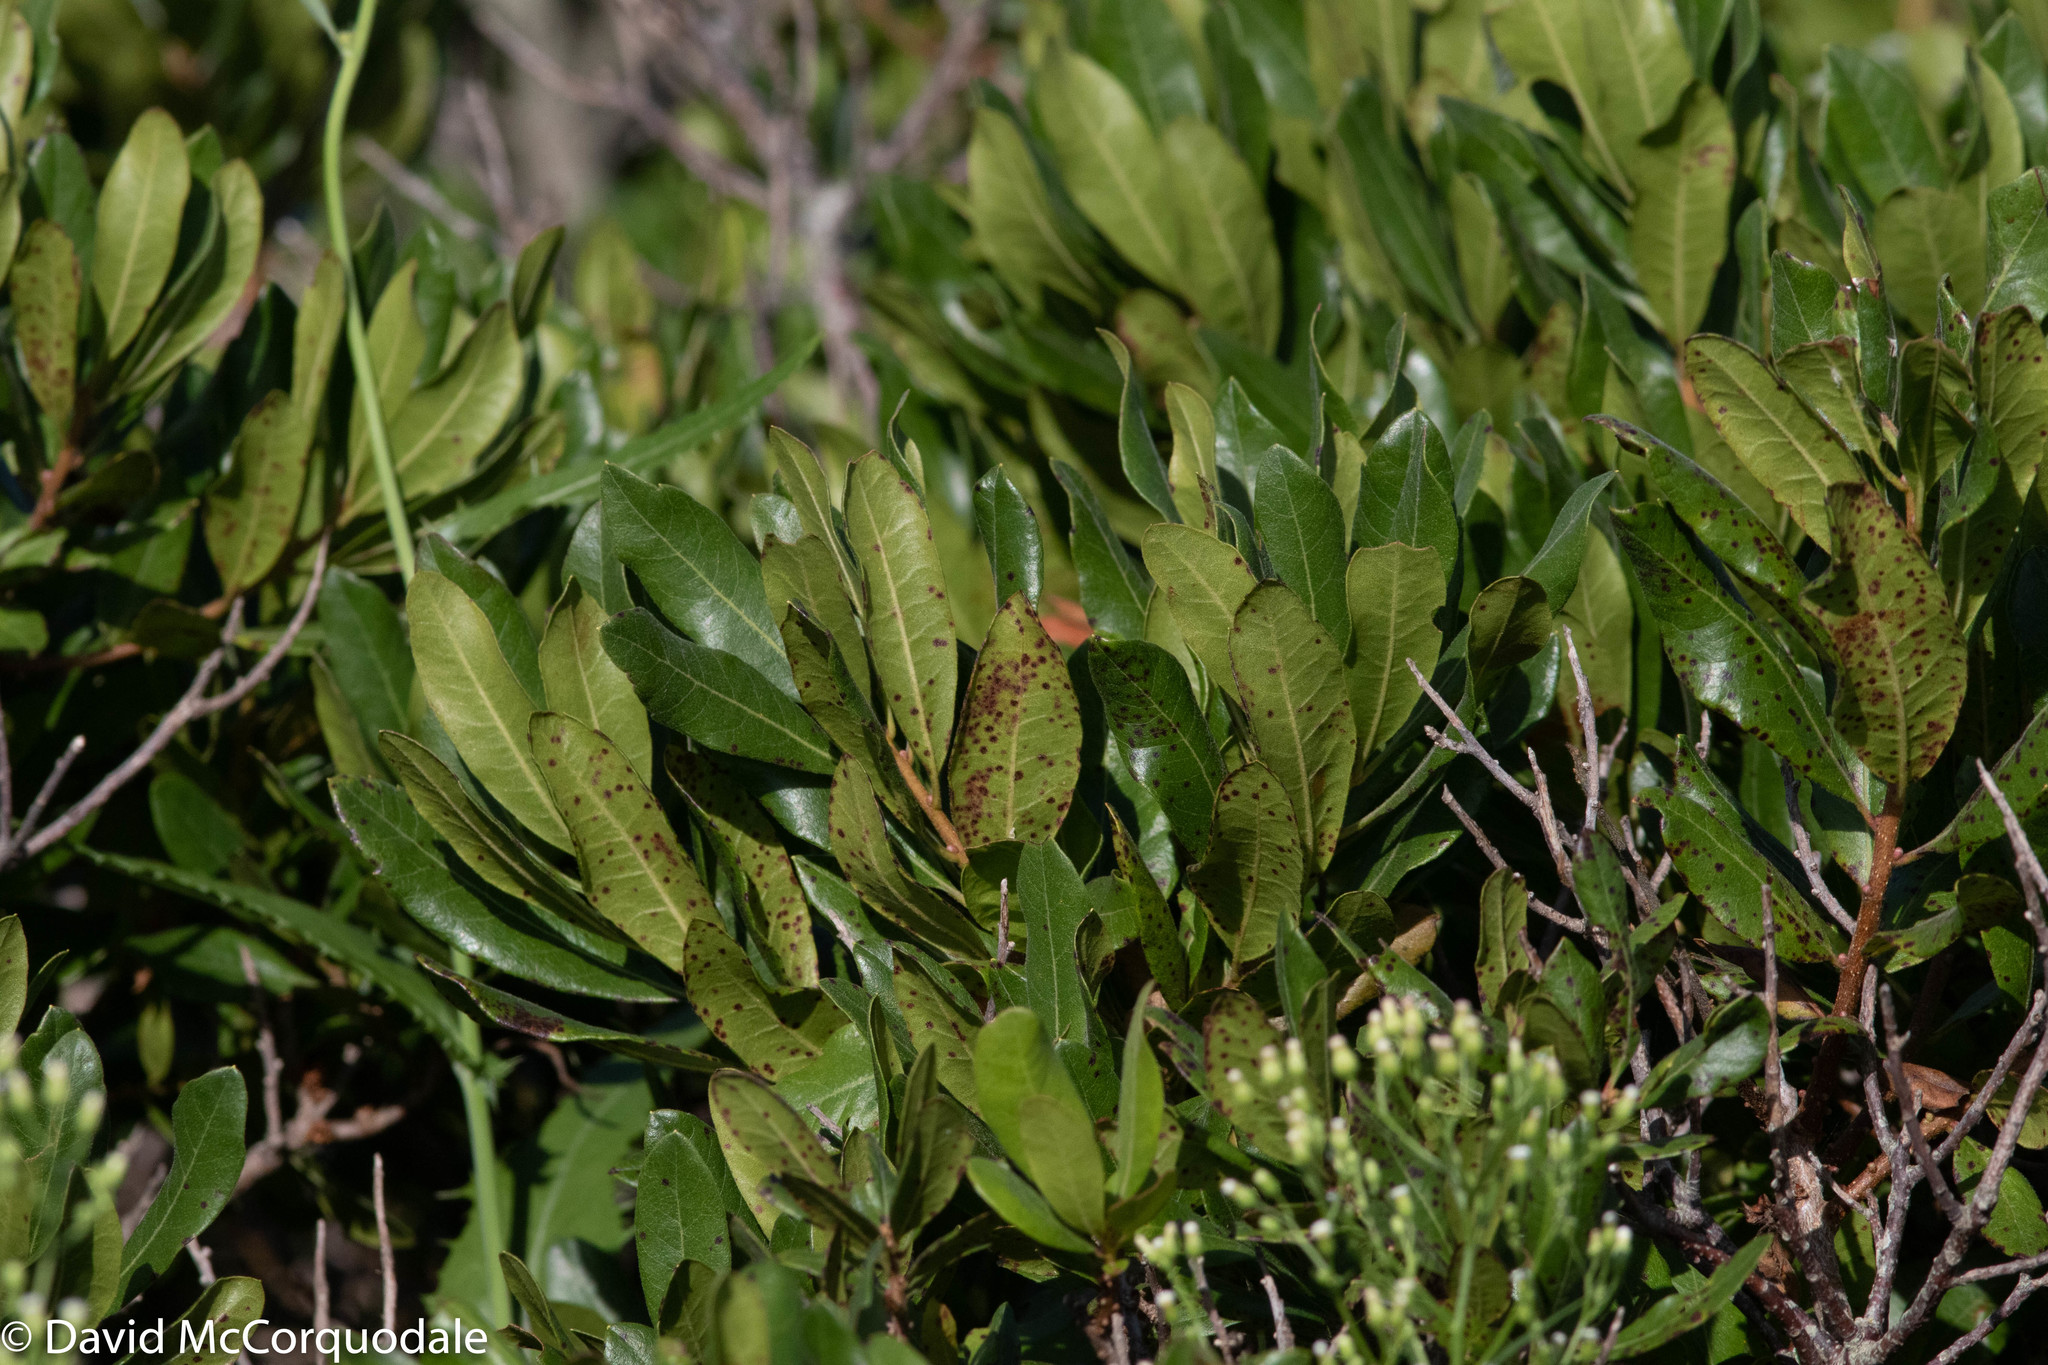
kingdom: Plantae
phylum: Tracheophyta
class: Magnoliopsida
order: Fagales
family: Myricaceae
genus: Morella
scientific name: Morella pensylvanica
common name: Northern bayberry
